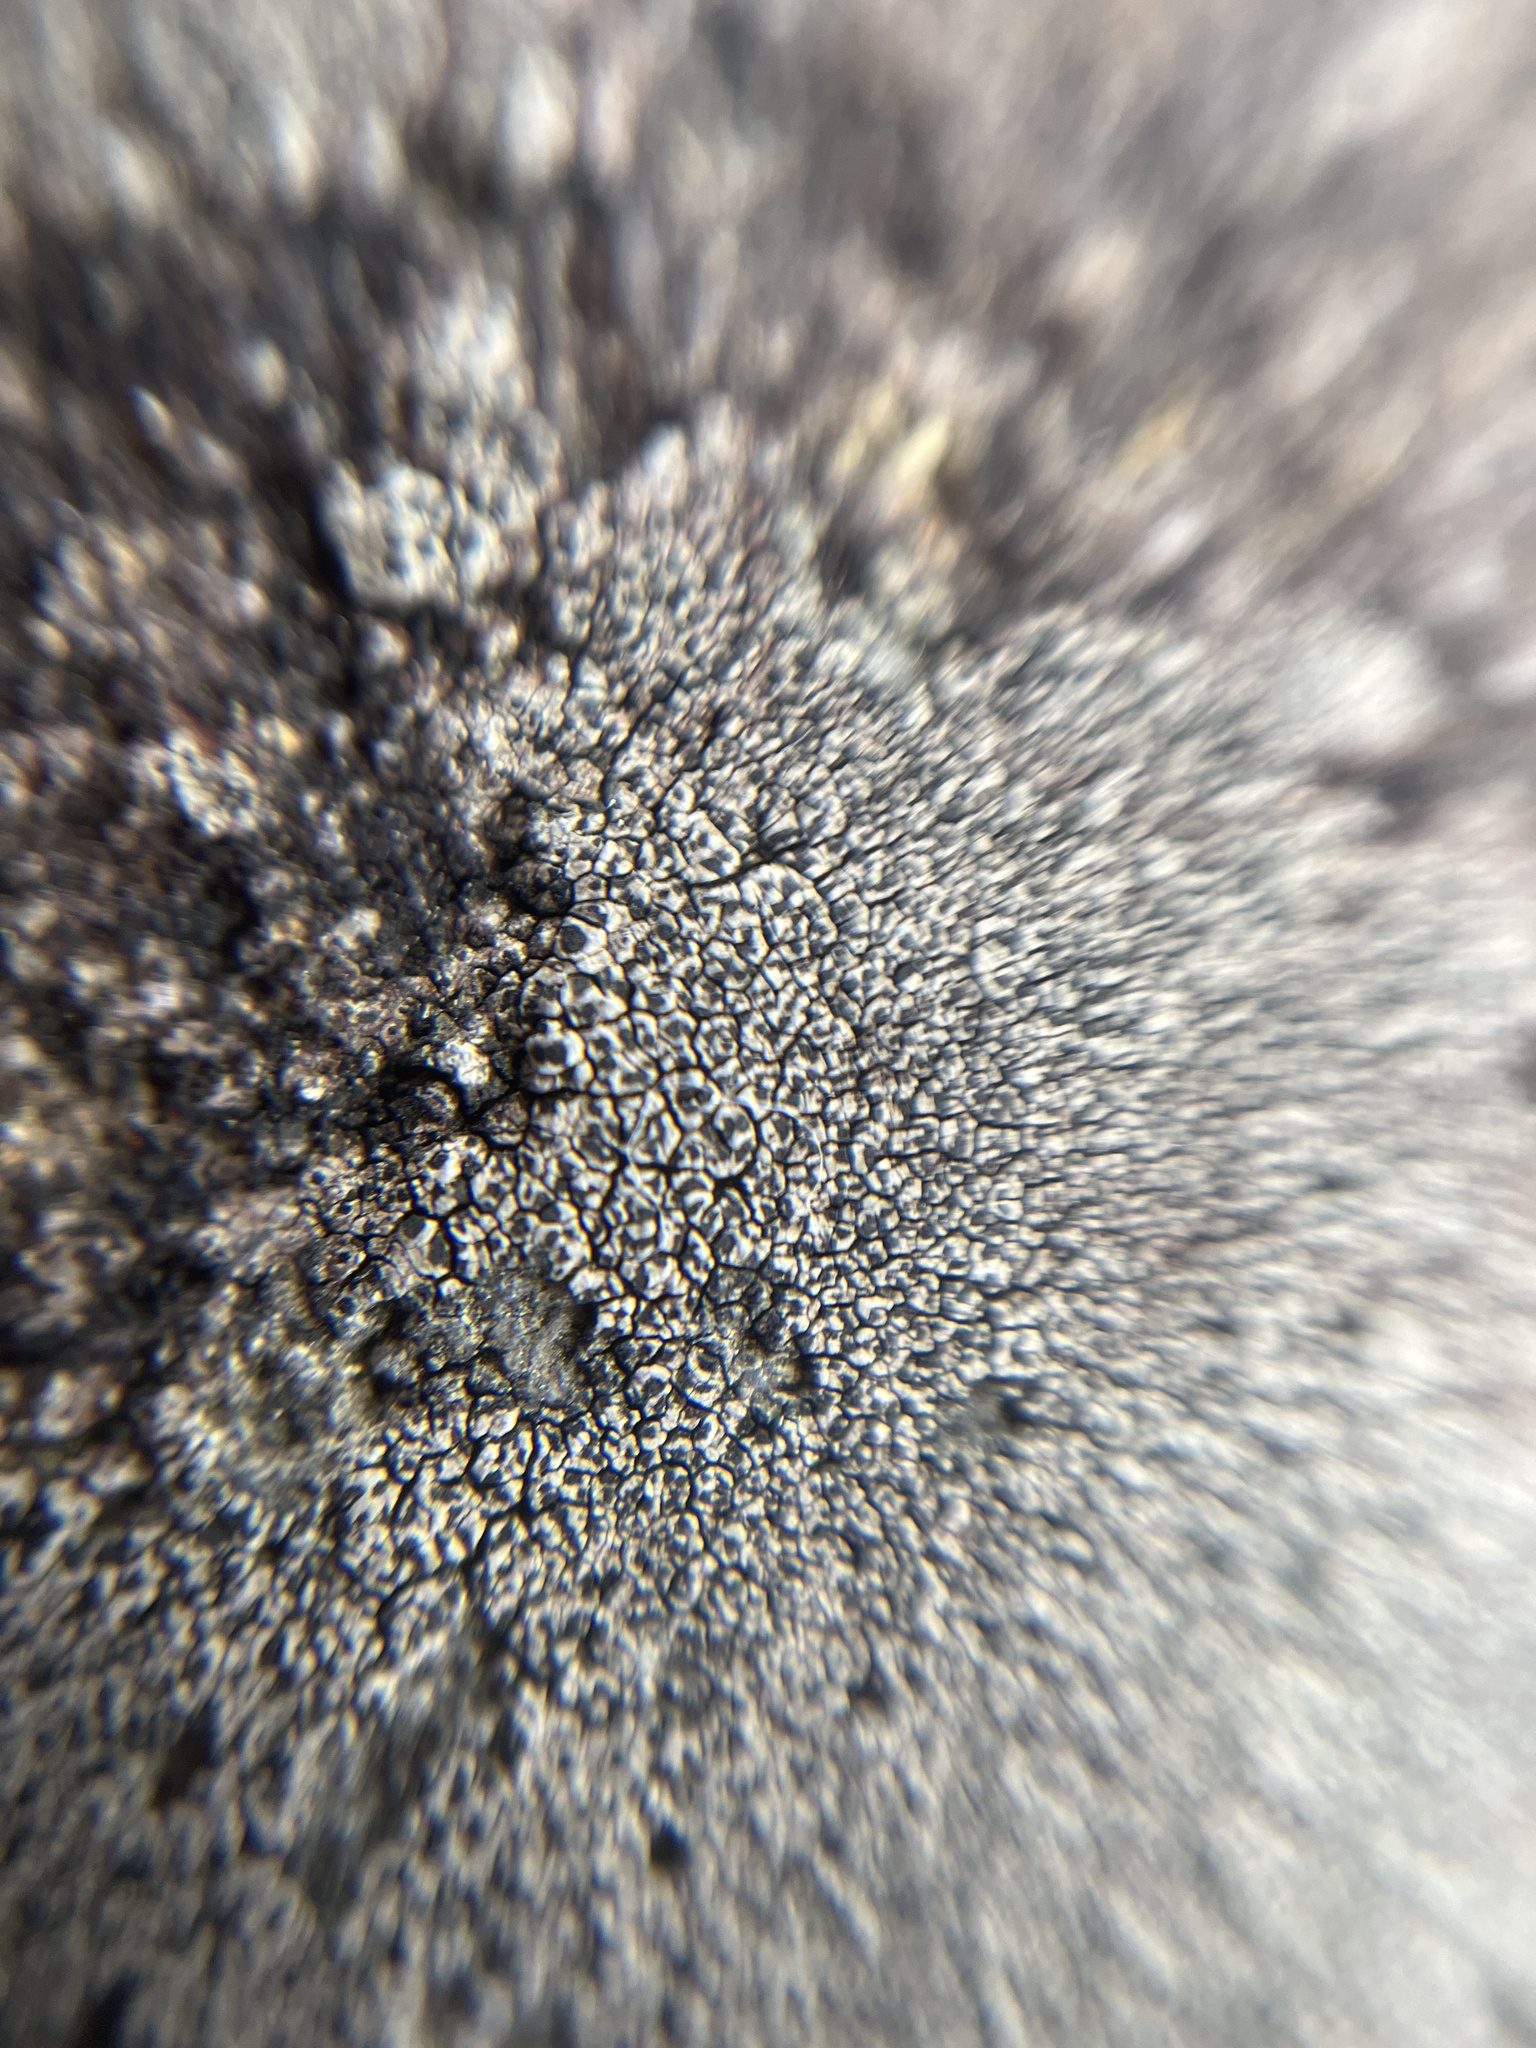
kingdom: Fungi
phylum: Ascomycota
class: Lecanoromycetes
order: Caliciales
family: Caliciaceae
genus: Buellia
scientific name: Buellia aethalea
